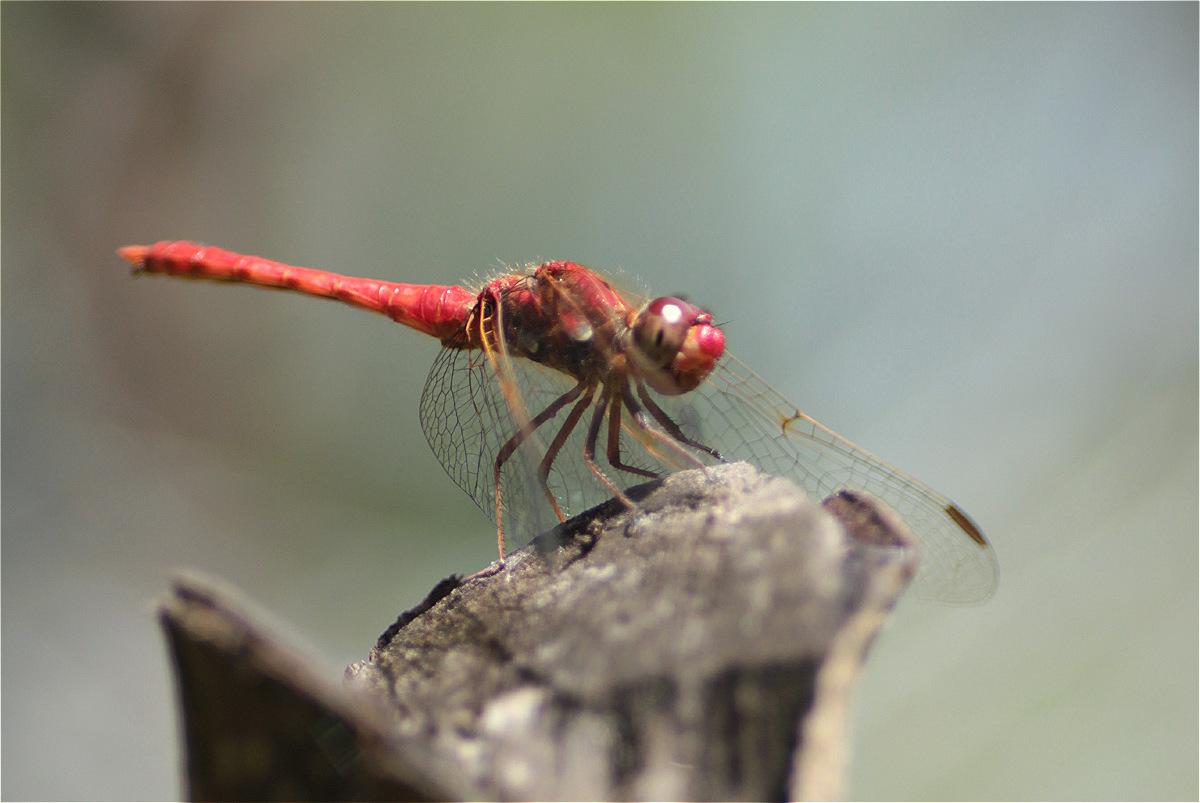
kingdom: Animalia
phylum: Arthropoda
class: Insecta
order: Odonata
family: Libellulidae
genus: Sympetrum
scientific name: Sympetrum gilvum
